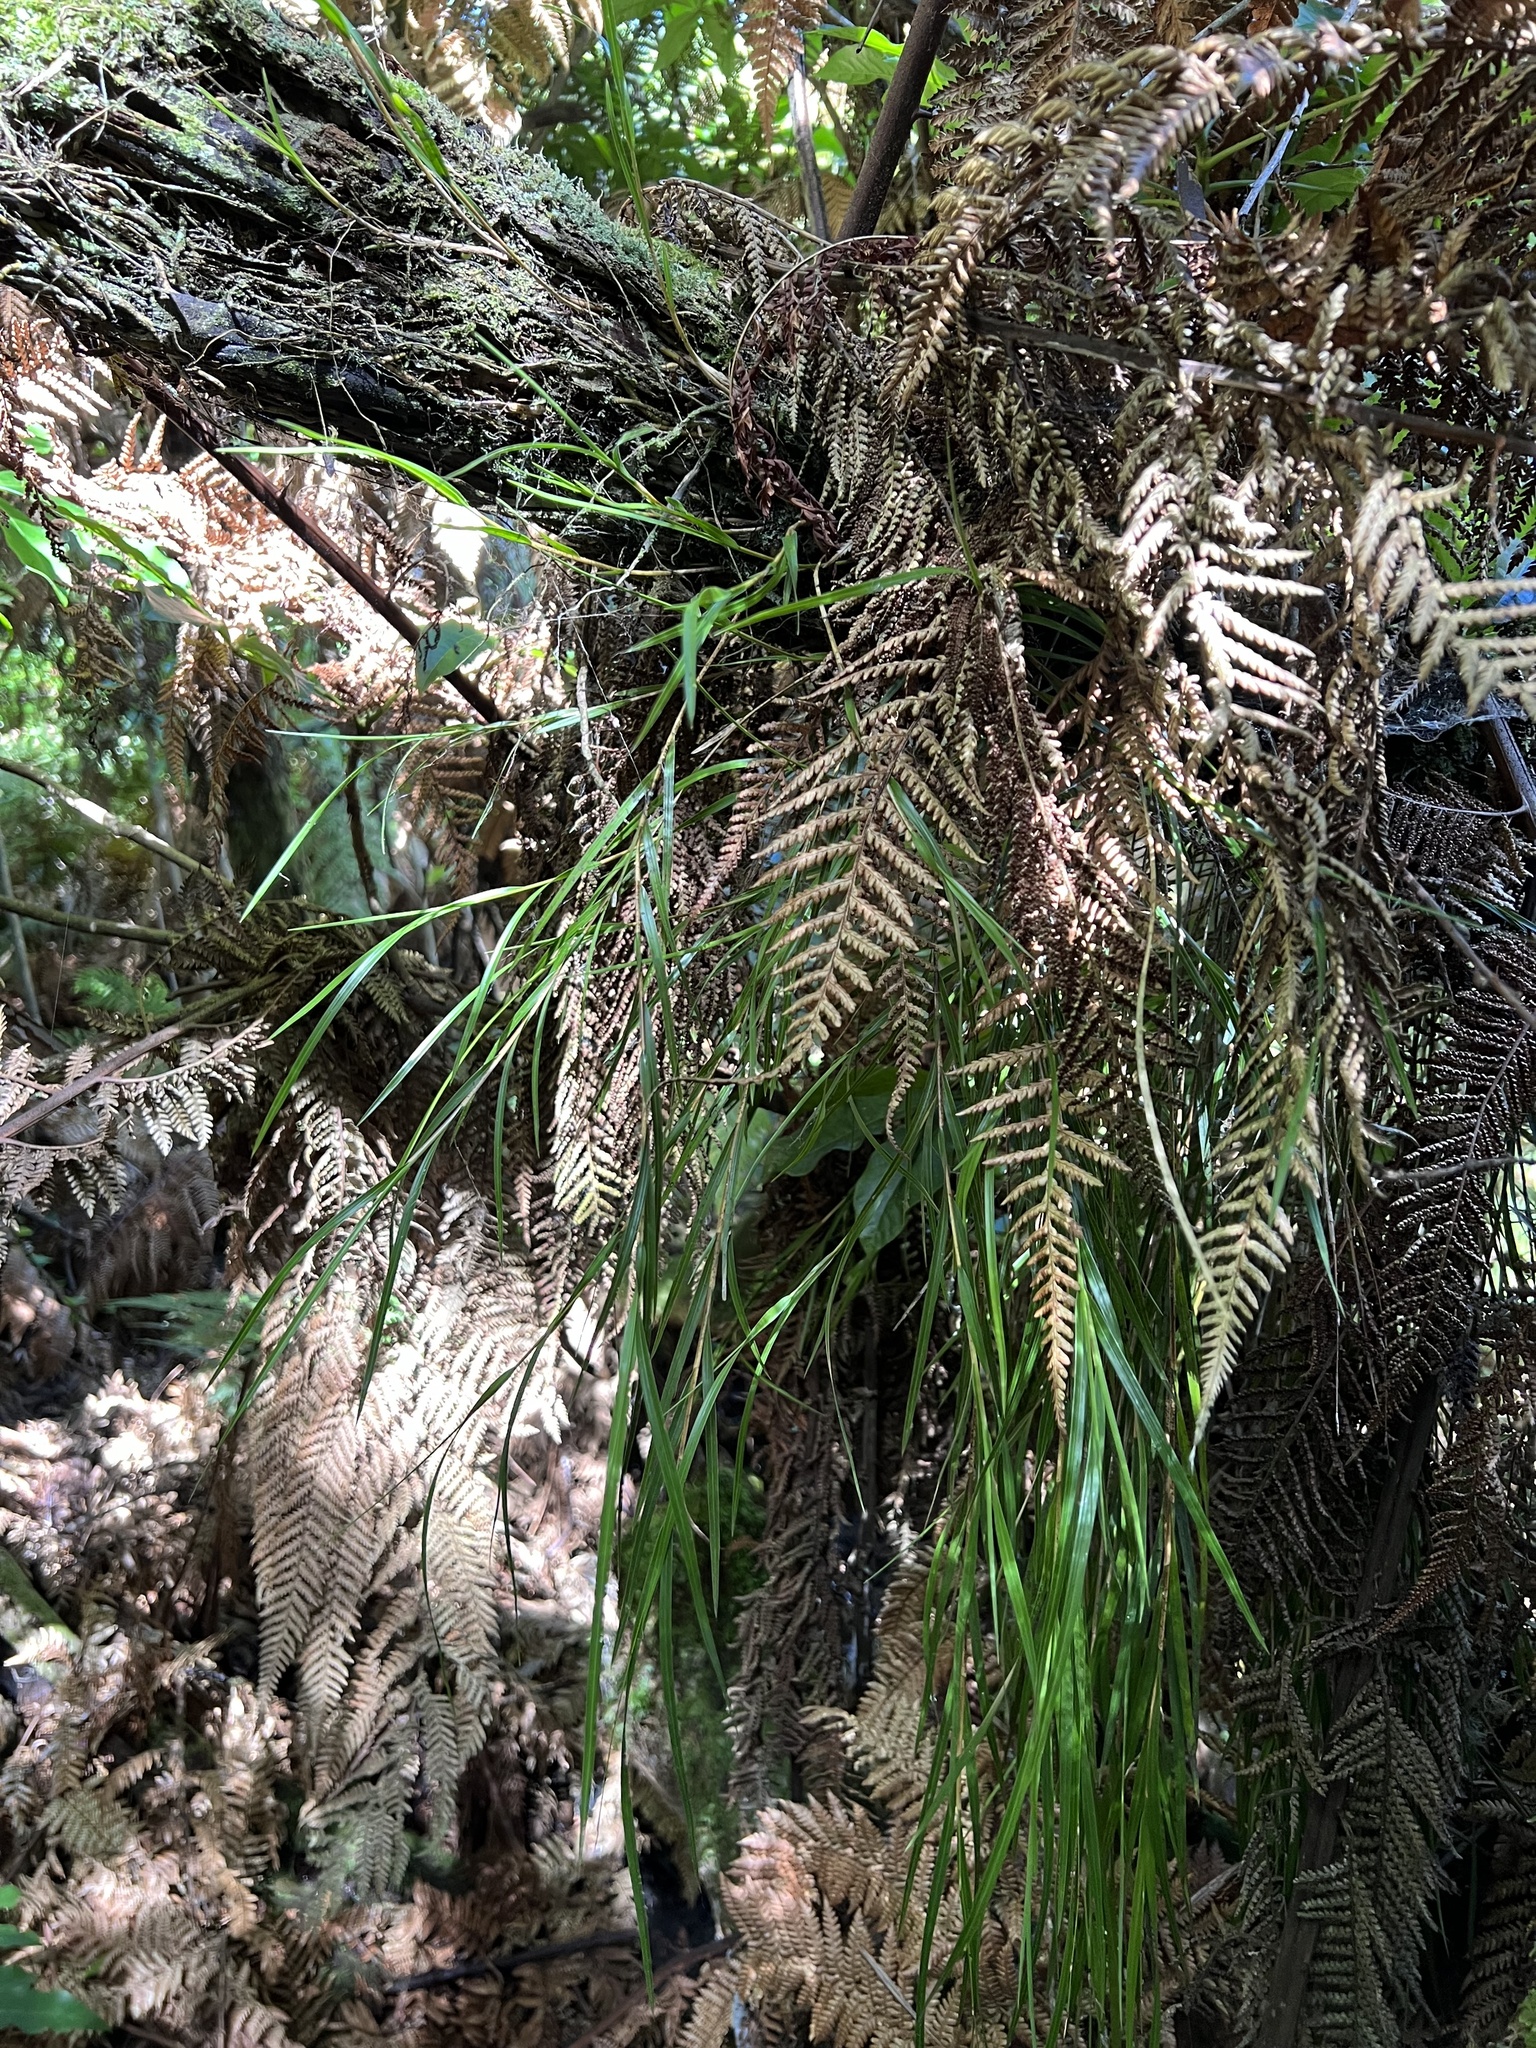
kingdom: Plantae
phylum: Tracheophyta
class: Liliopsida
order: Asparagales
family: Orchidaceae
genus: Earina
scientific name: Earina mucronata
